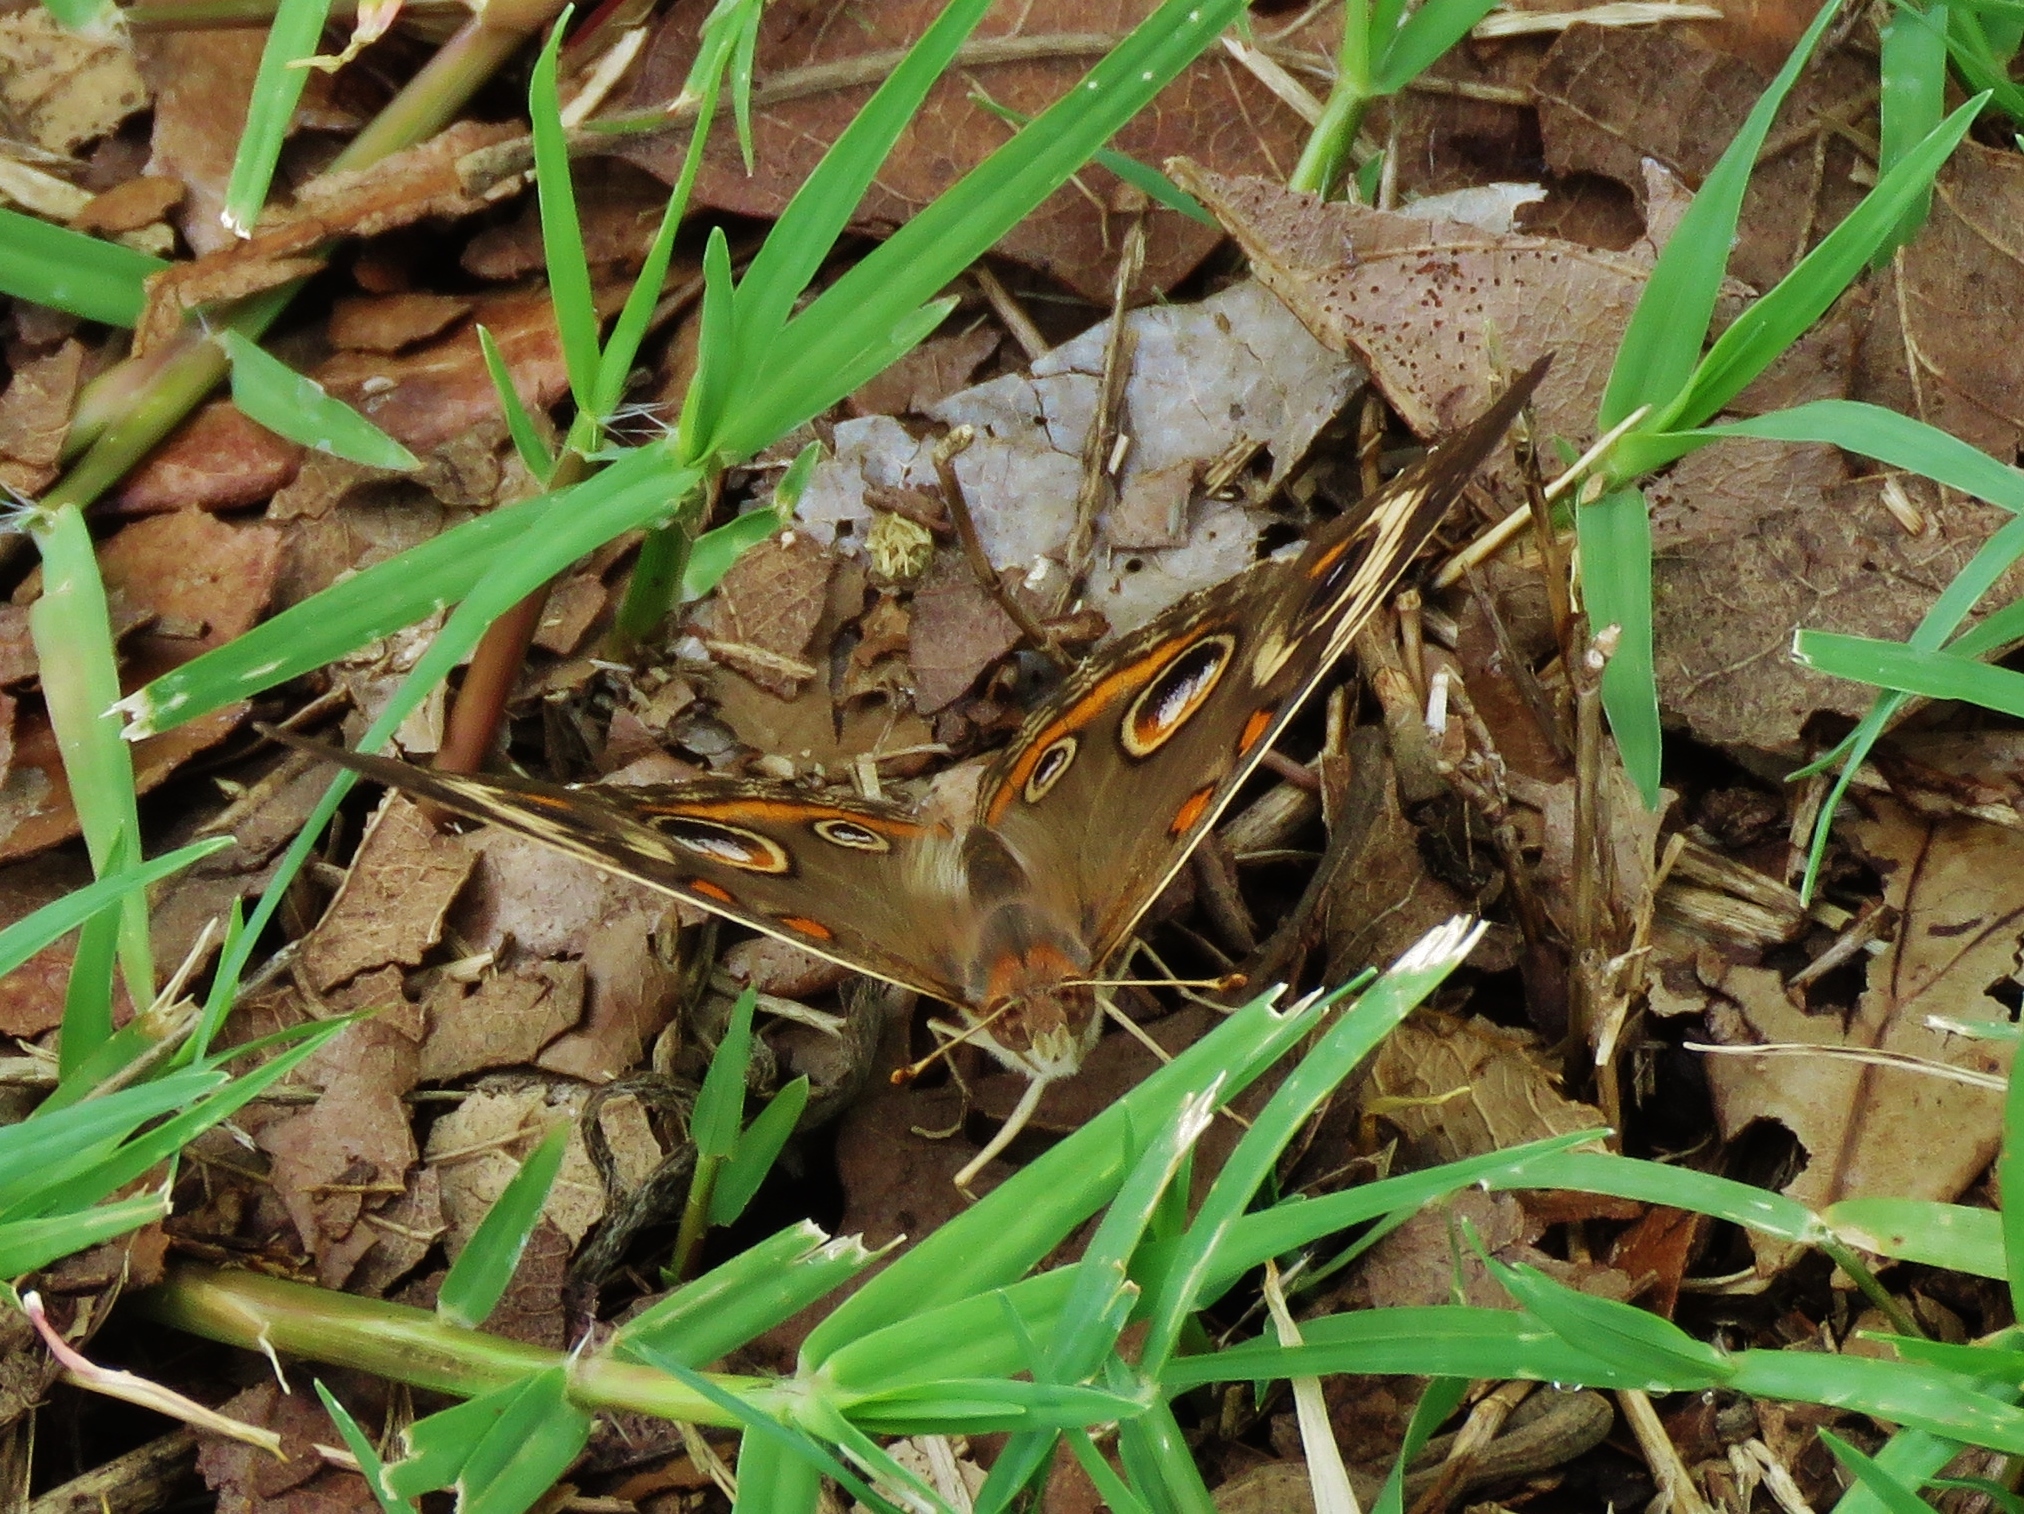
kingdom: Animalia
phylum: Arthropoda
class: Insecta
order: Lepidoptera
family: Nymphalidae
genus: Junonia
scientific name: Junonia coenia
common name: Common buckeye
